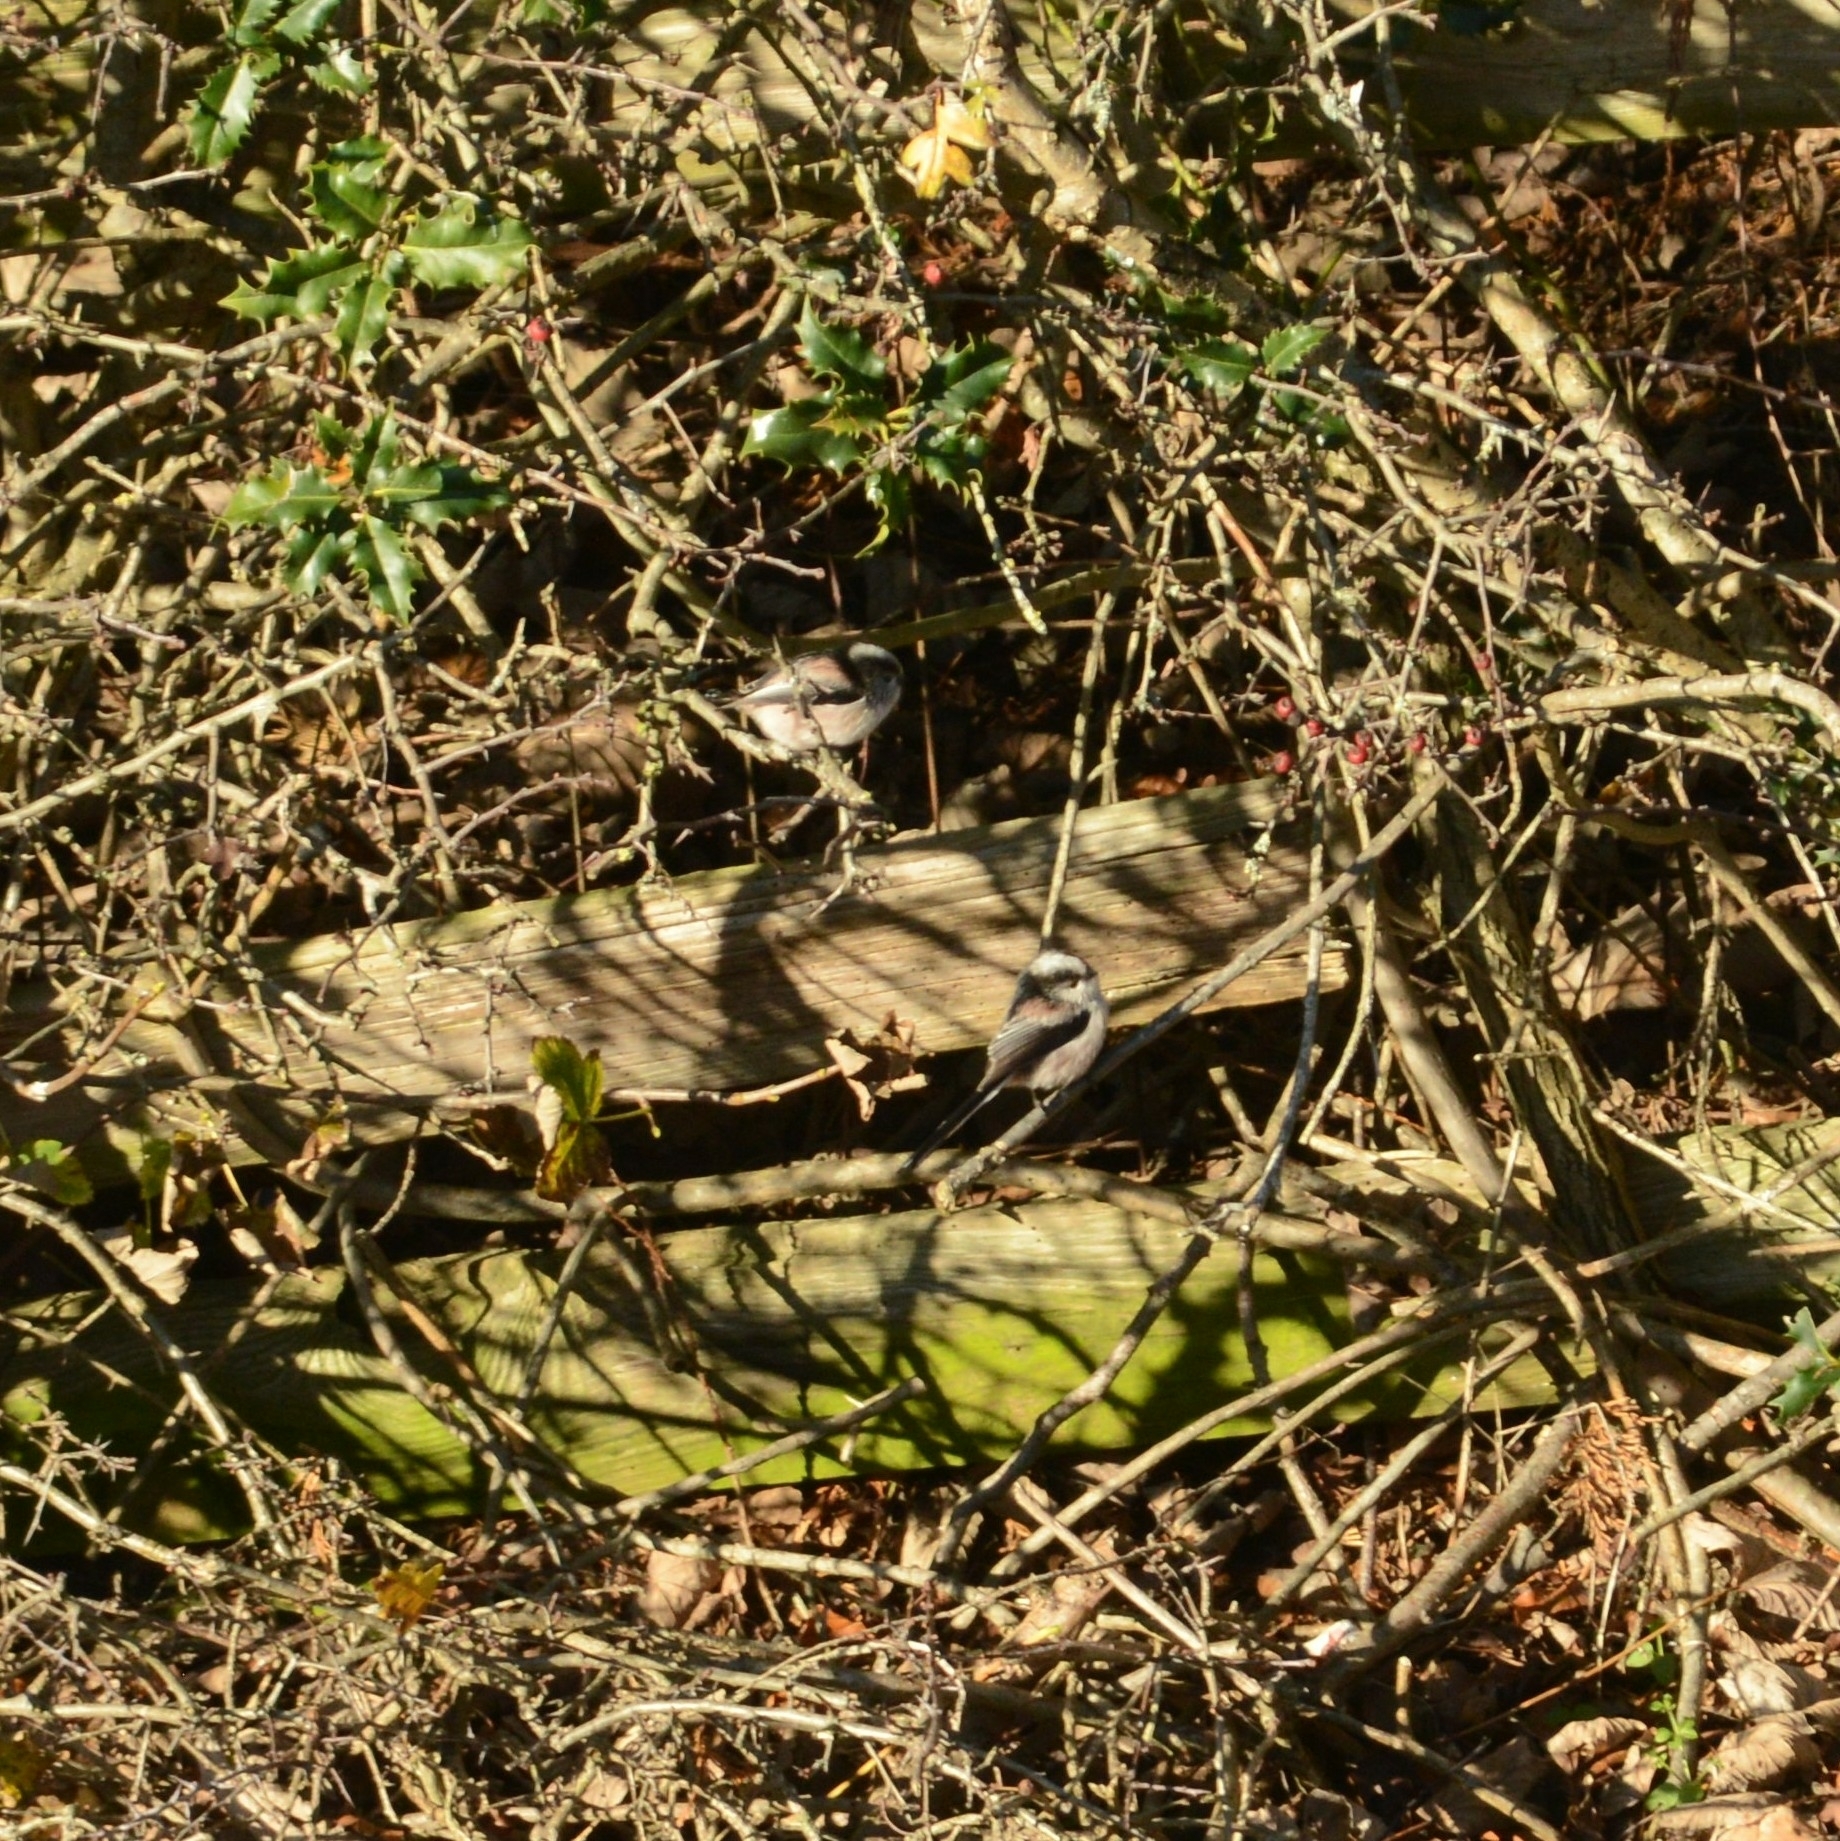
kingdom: Animalia
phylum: Chordata
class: Aves
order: Passeriformes
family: Aegithalidae
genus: Aegithalos
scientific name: Aegithalos caudatus
